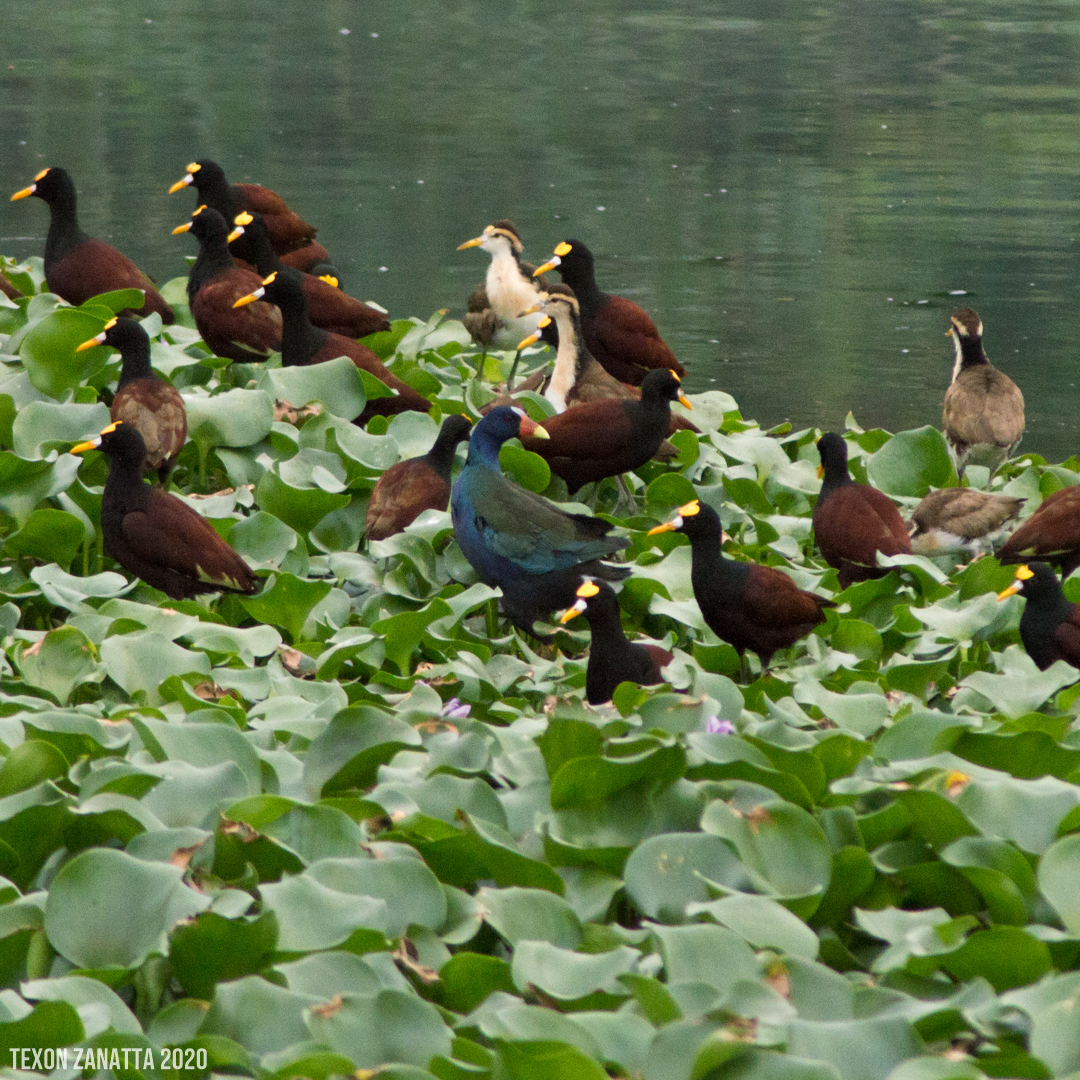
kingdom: Animalia
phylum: Chordata
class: Aves
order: Gruiformes
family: Rallidae
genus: Porphyrio
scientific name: Porphyrio martinica
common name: Purple gallinule
